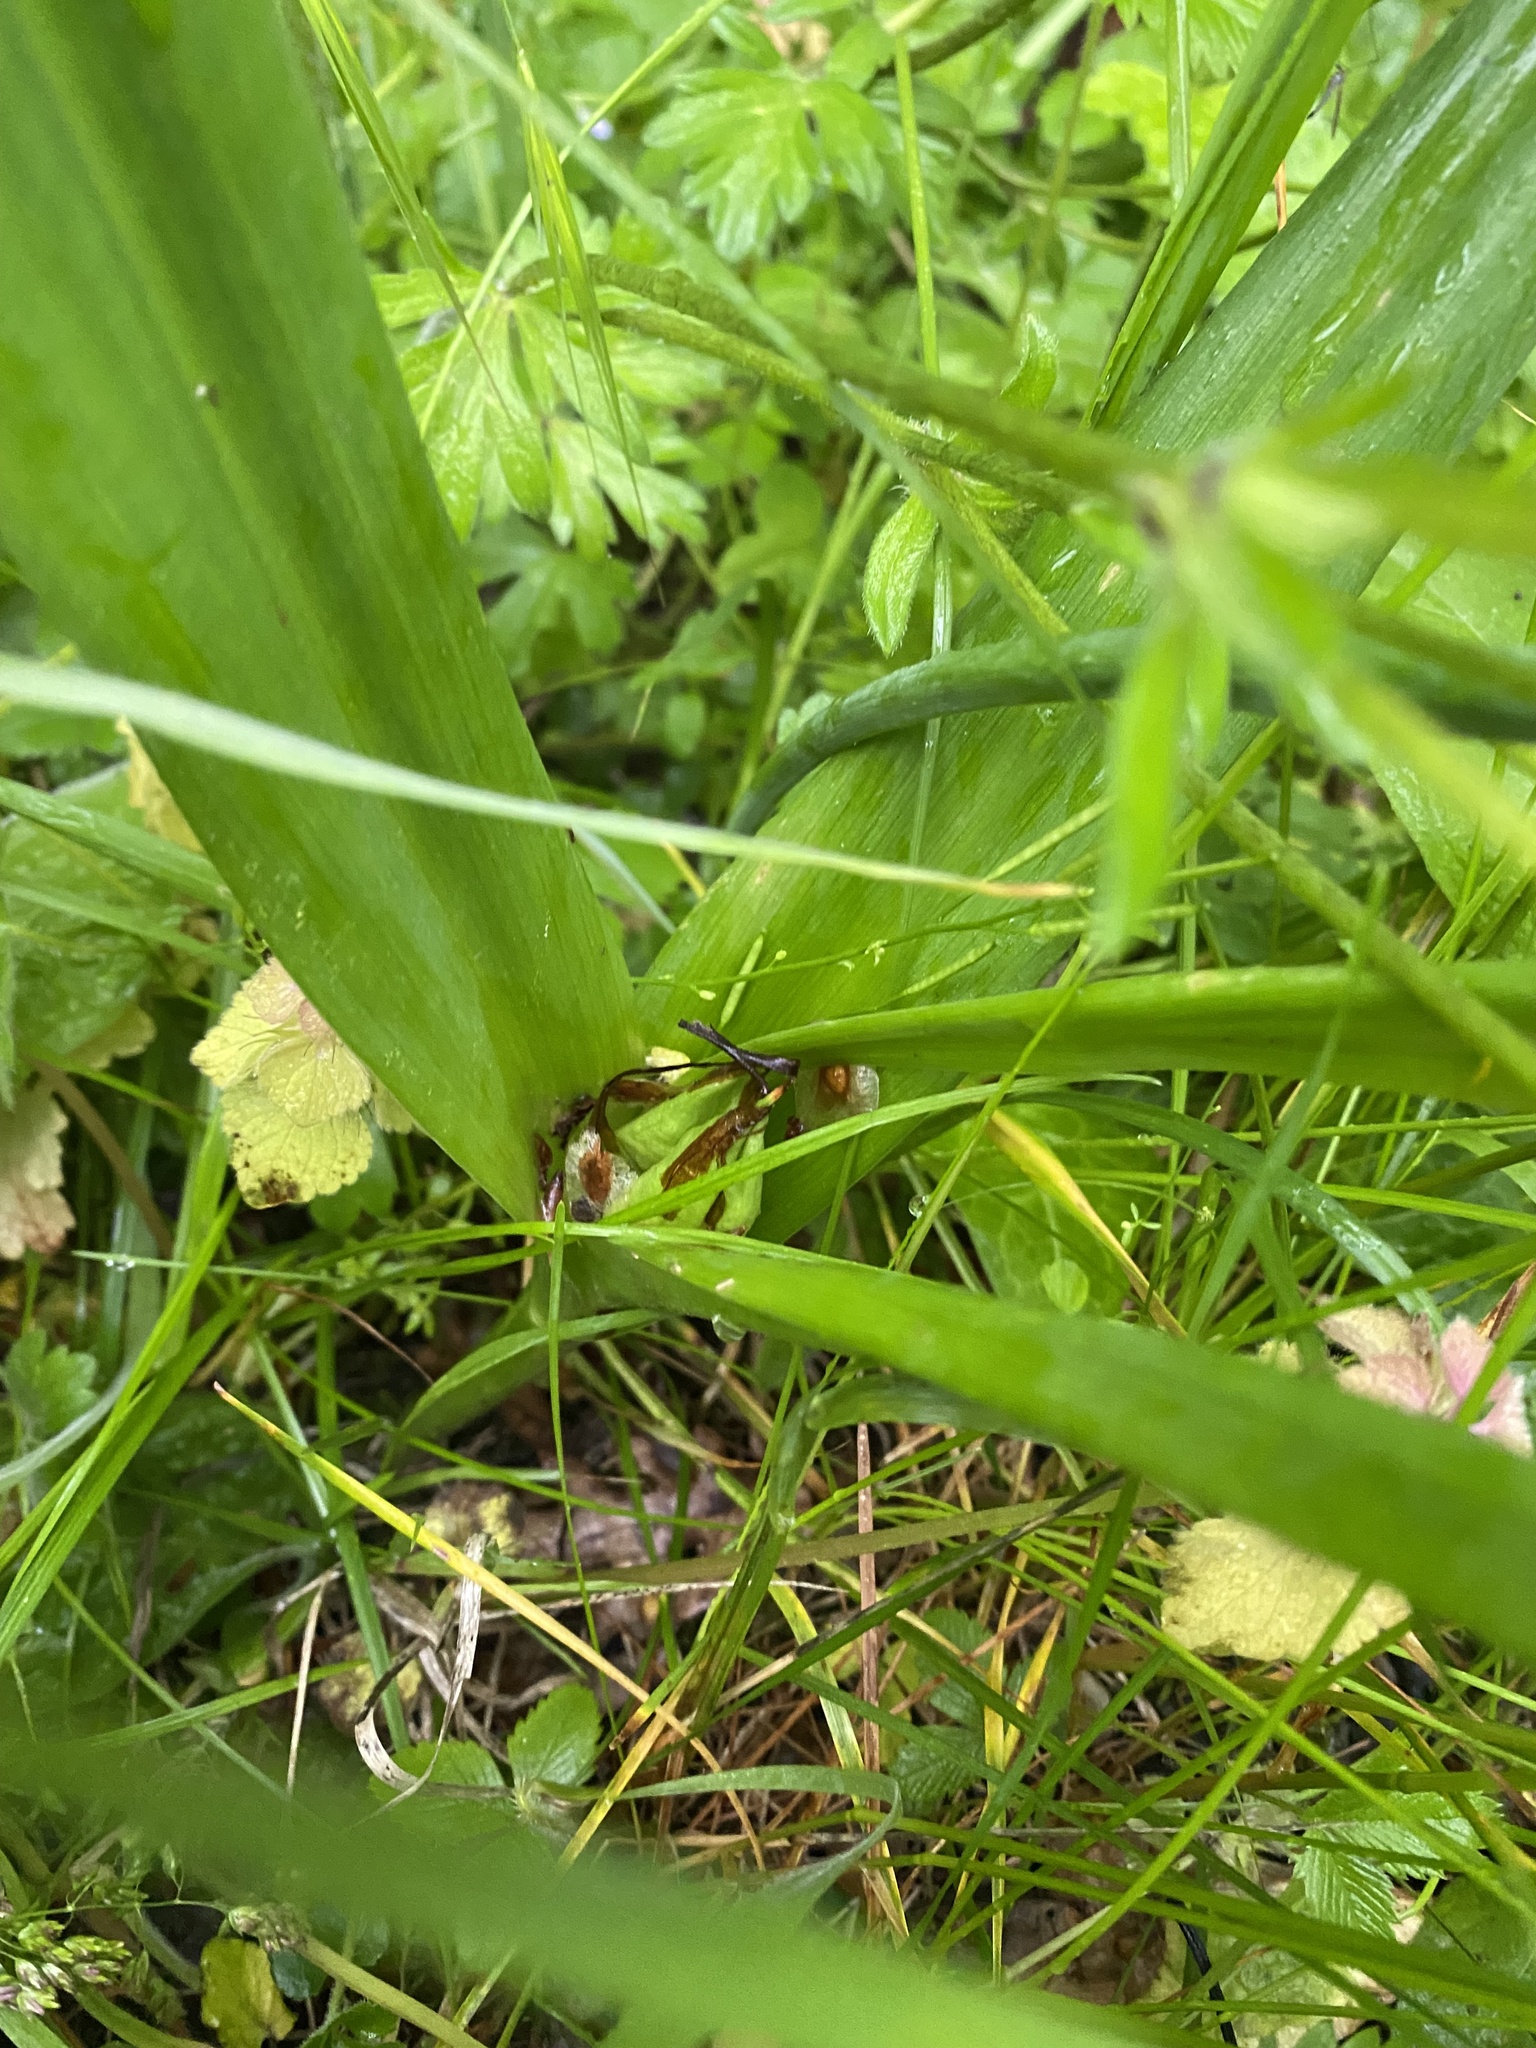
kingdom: Plantae
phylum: Tracheophyta
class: Liliopsida
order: Liliales
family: Colchicaceae
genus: Colchicum
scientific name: Colchicum umbrosum
